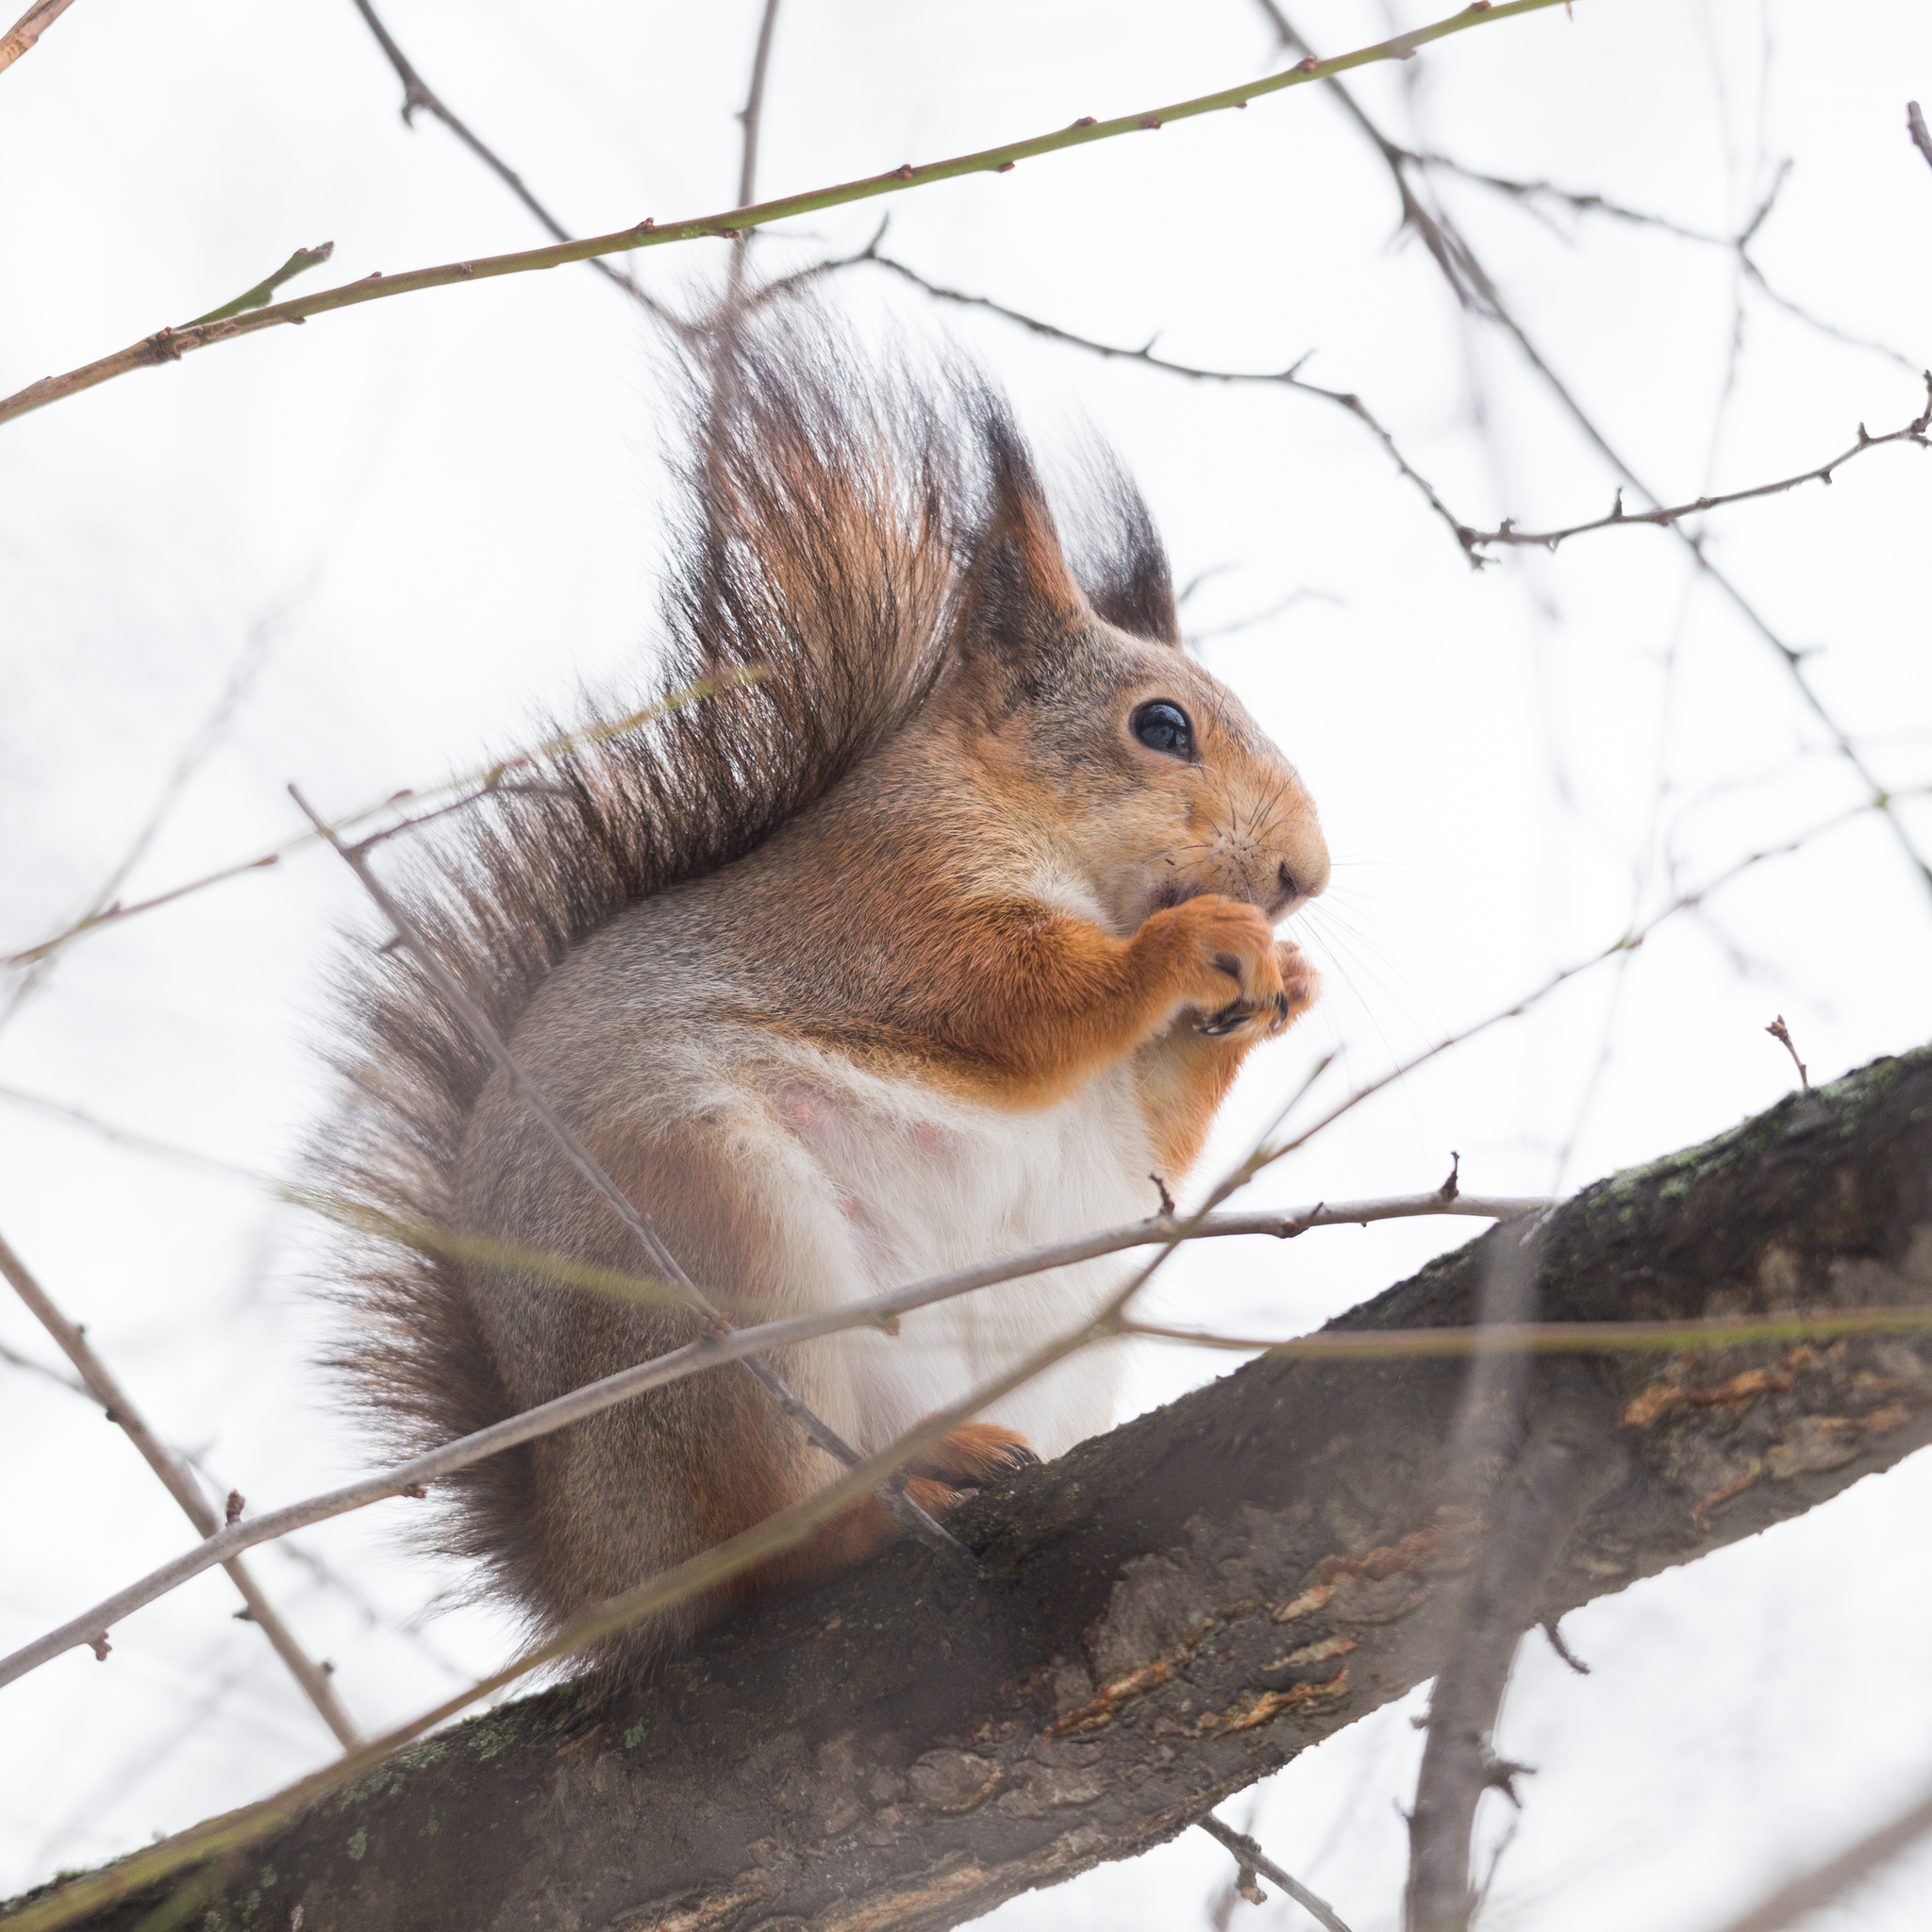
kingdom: Animalia
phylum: Chordata
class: Mammalia
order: Rodentia
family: Sciuridae
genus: Sciurus
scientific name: Sciurus vulgaris
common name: Eurasian red squirrel
